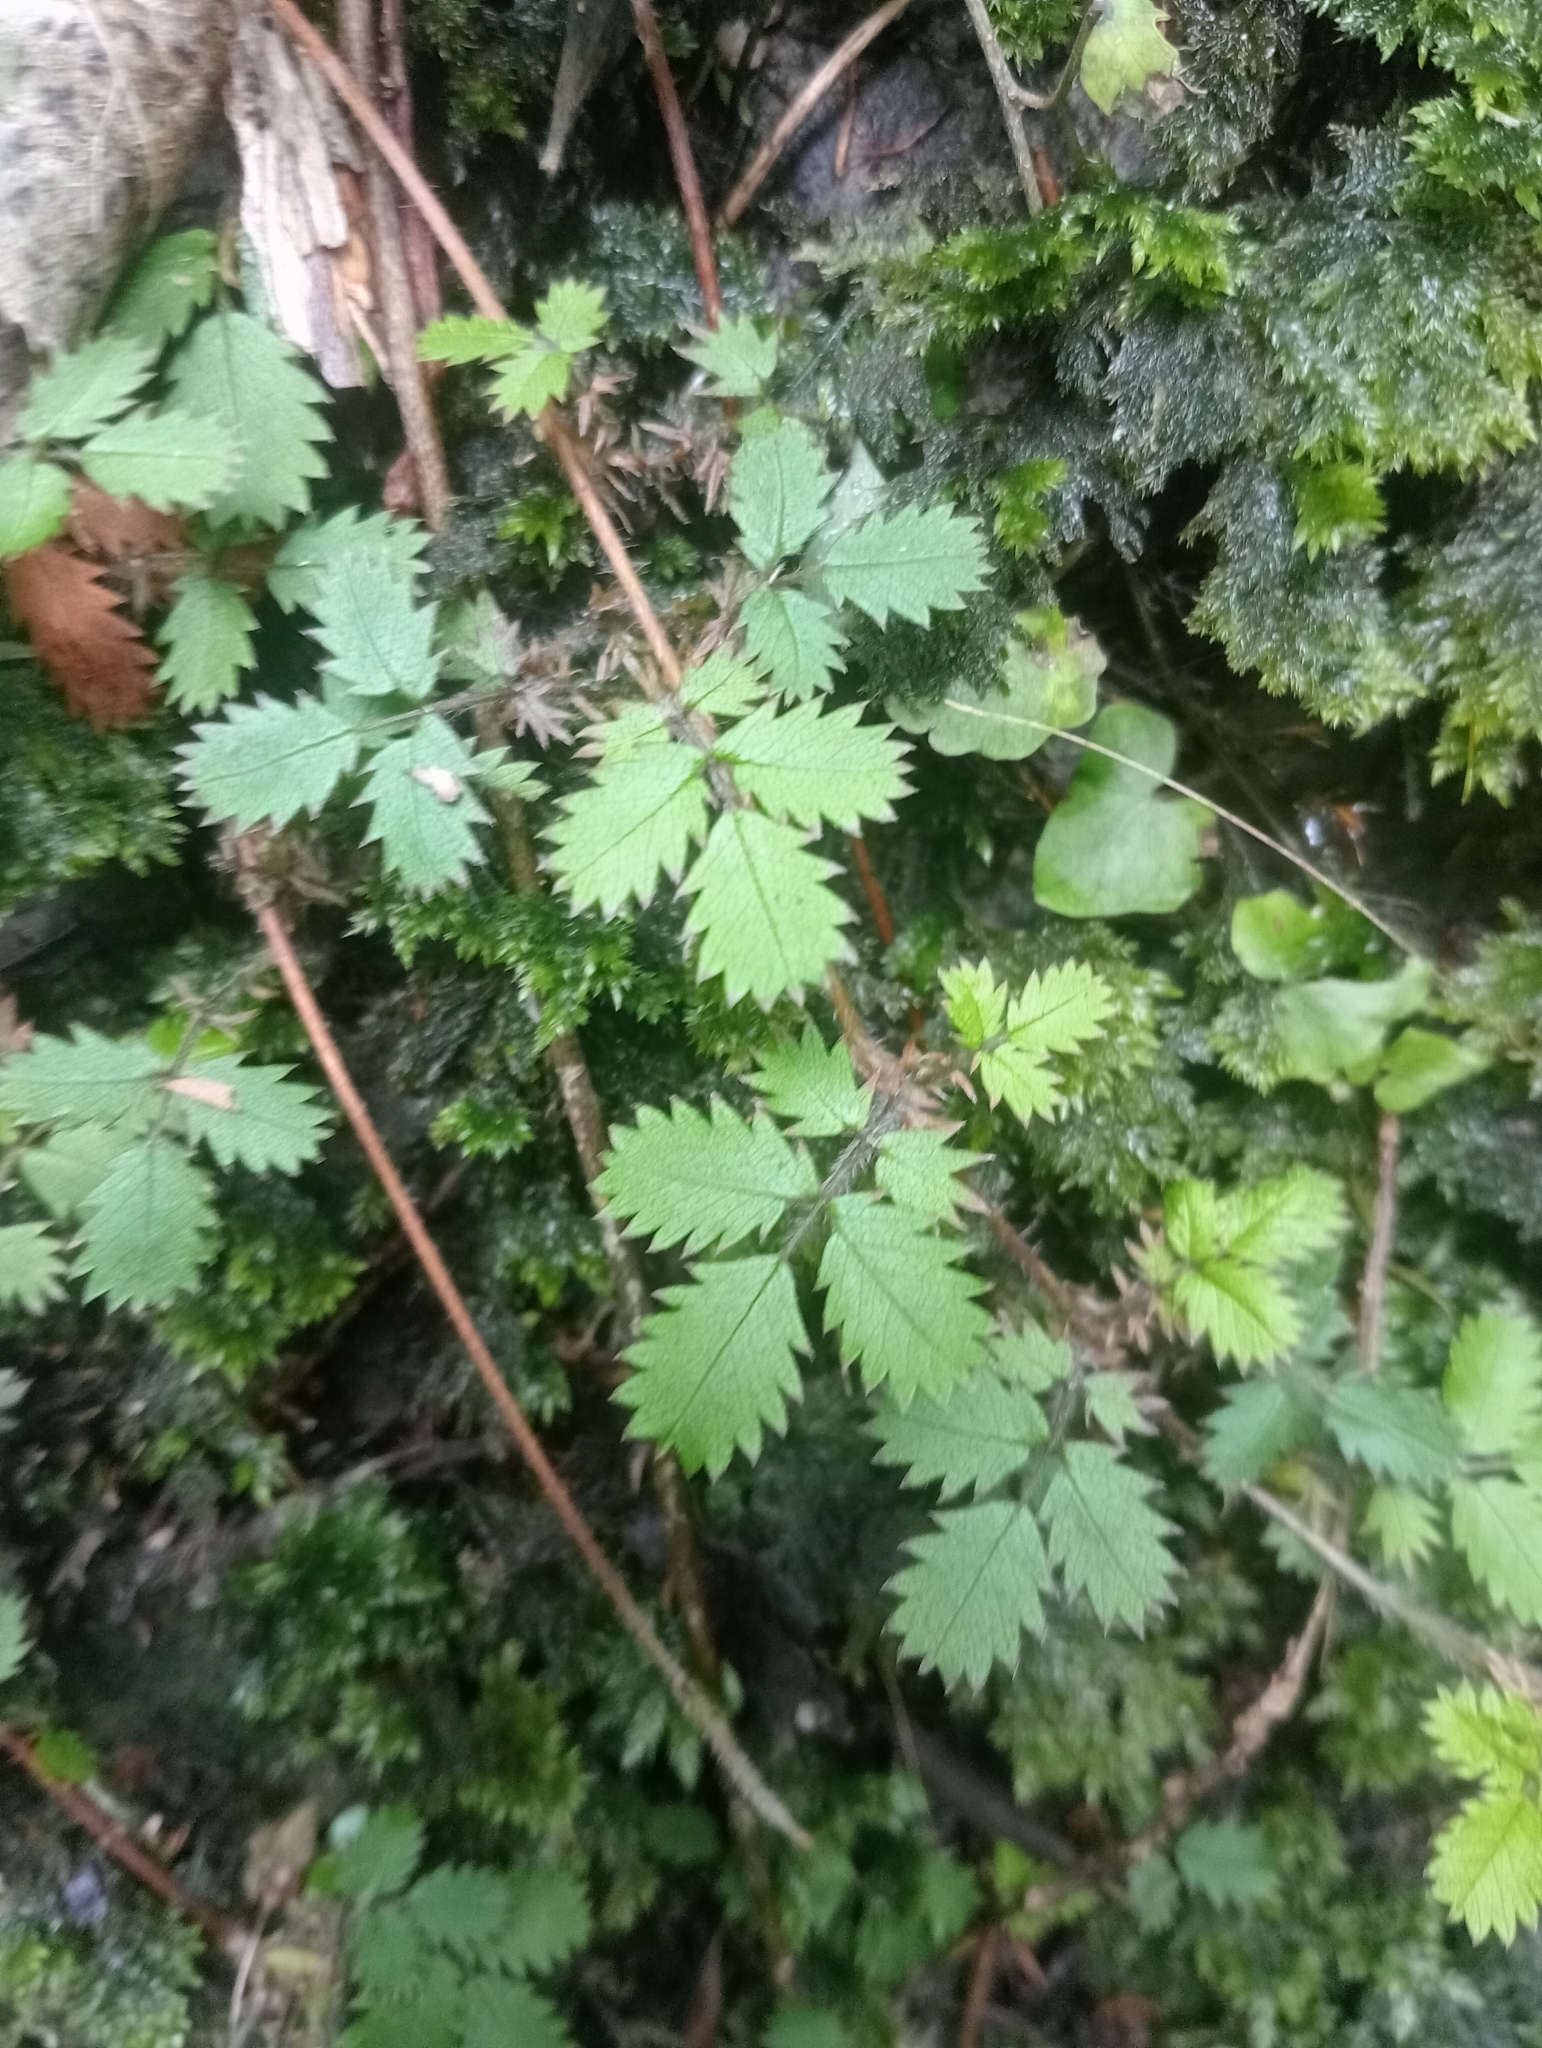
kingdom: Plantae
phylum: Tracheophyta
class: Magnoliopsida
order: Rosales
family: Rosaceae
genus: Acaena
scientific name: Acaena juvenca
